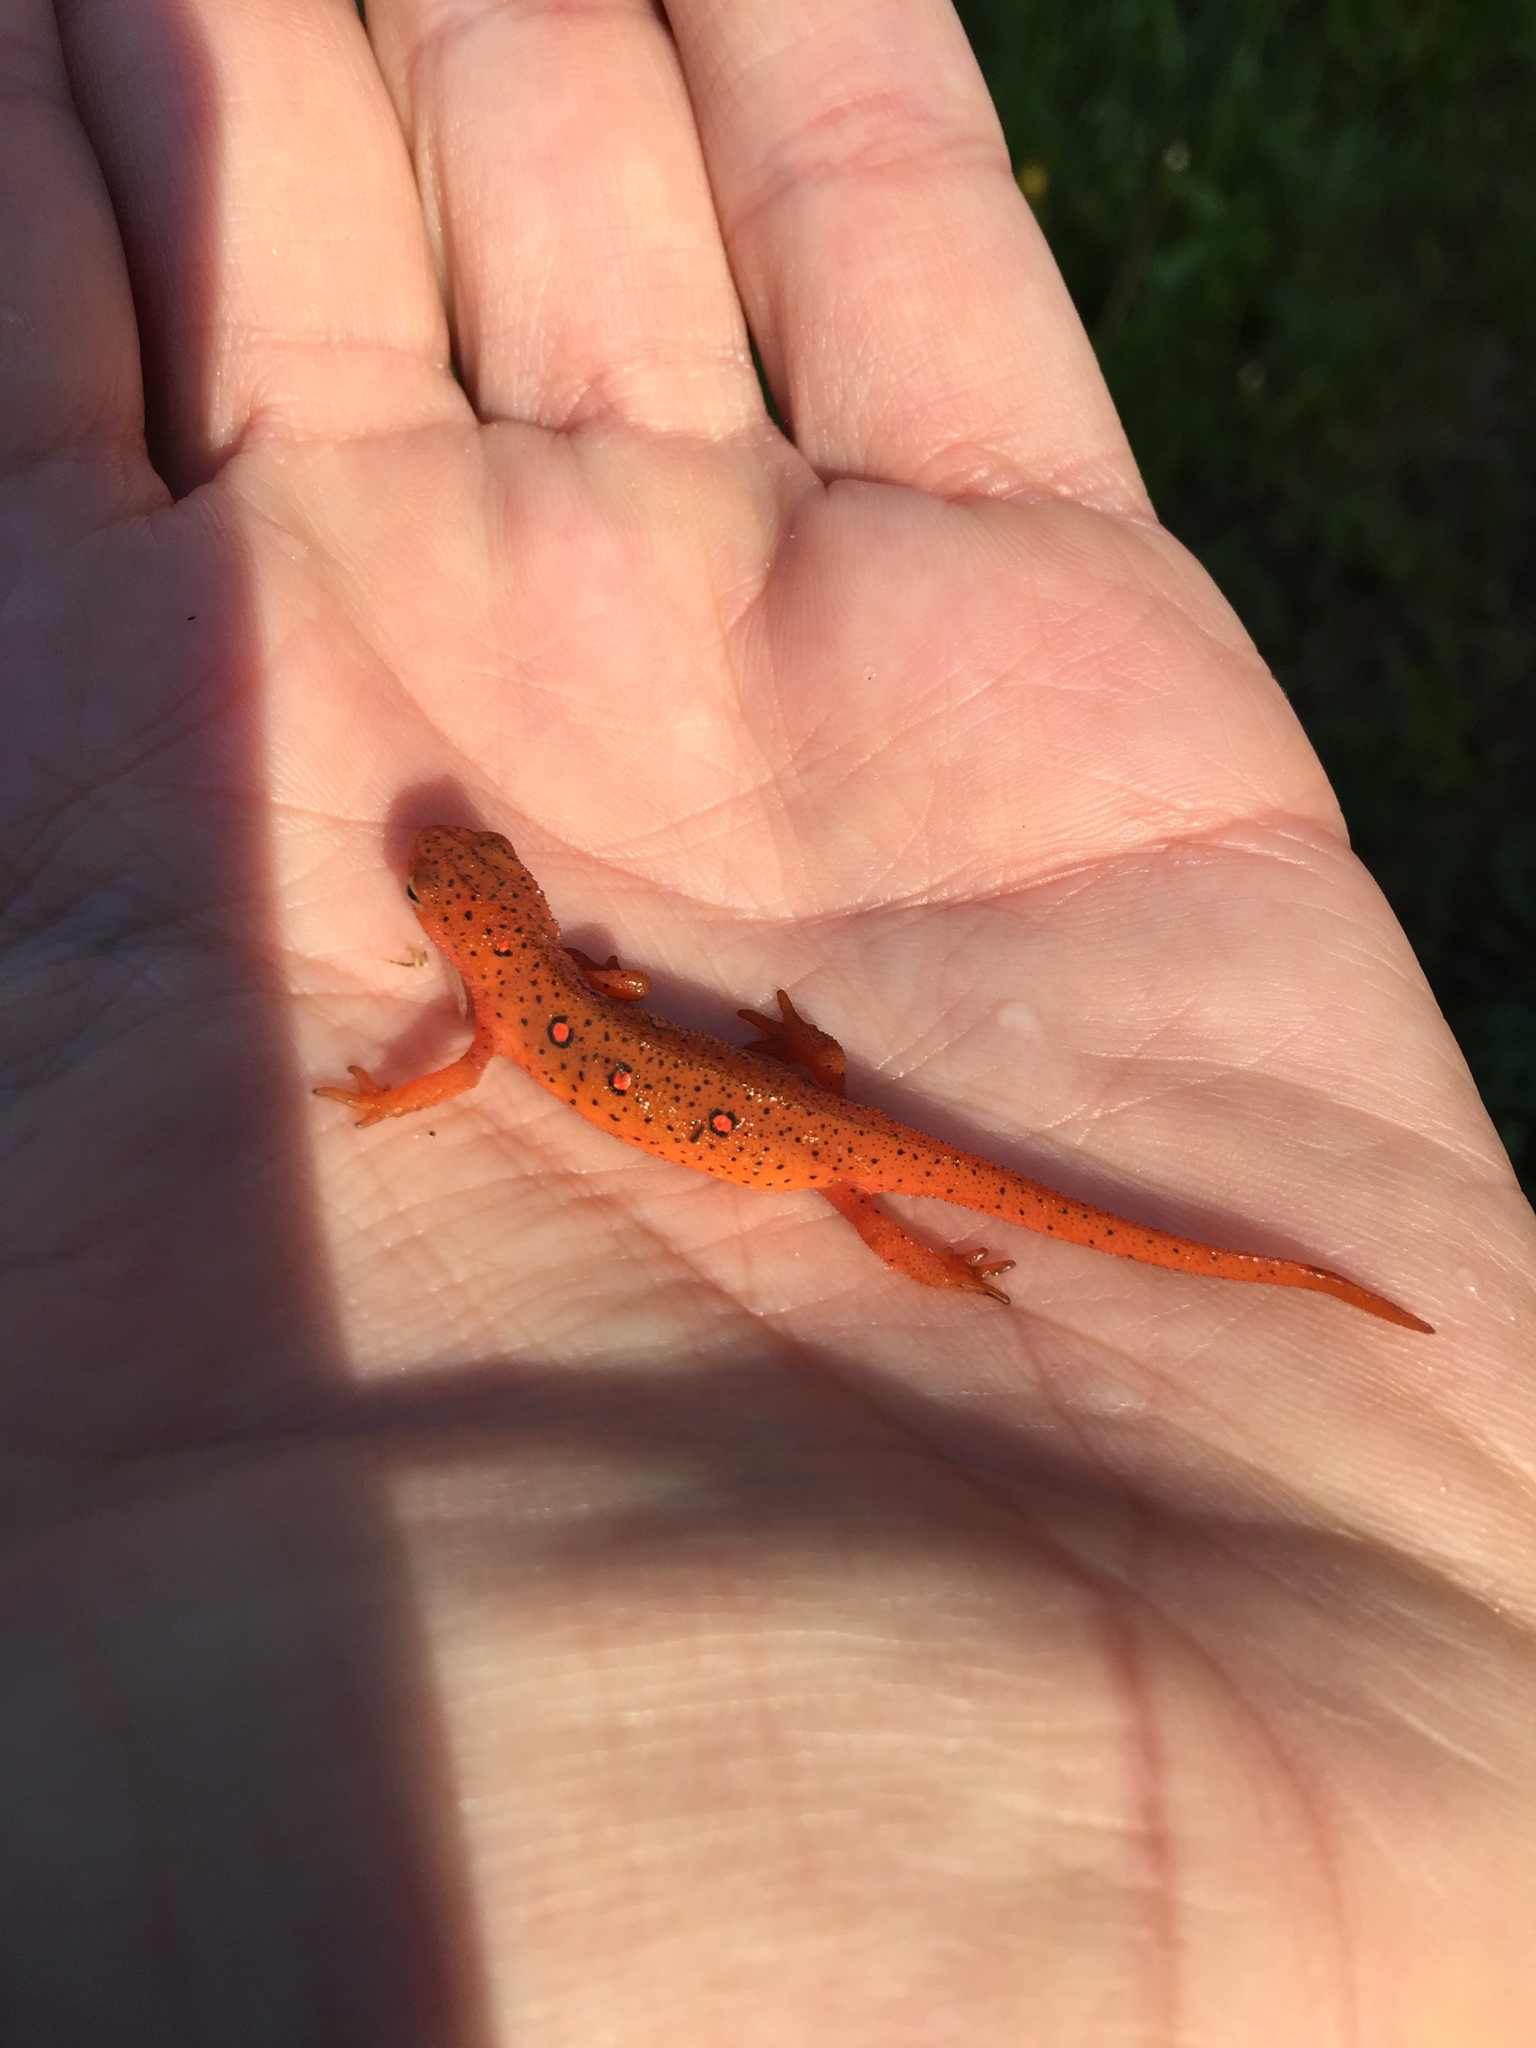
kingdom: Animalia
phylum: Chordata
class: Amphibia
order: Caudata
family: Salamandridae
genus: Notophthalmus
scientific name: Notophthalmus viridescens
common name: Eastern newt
